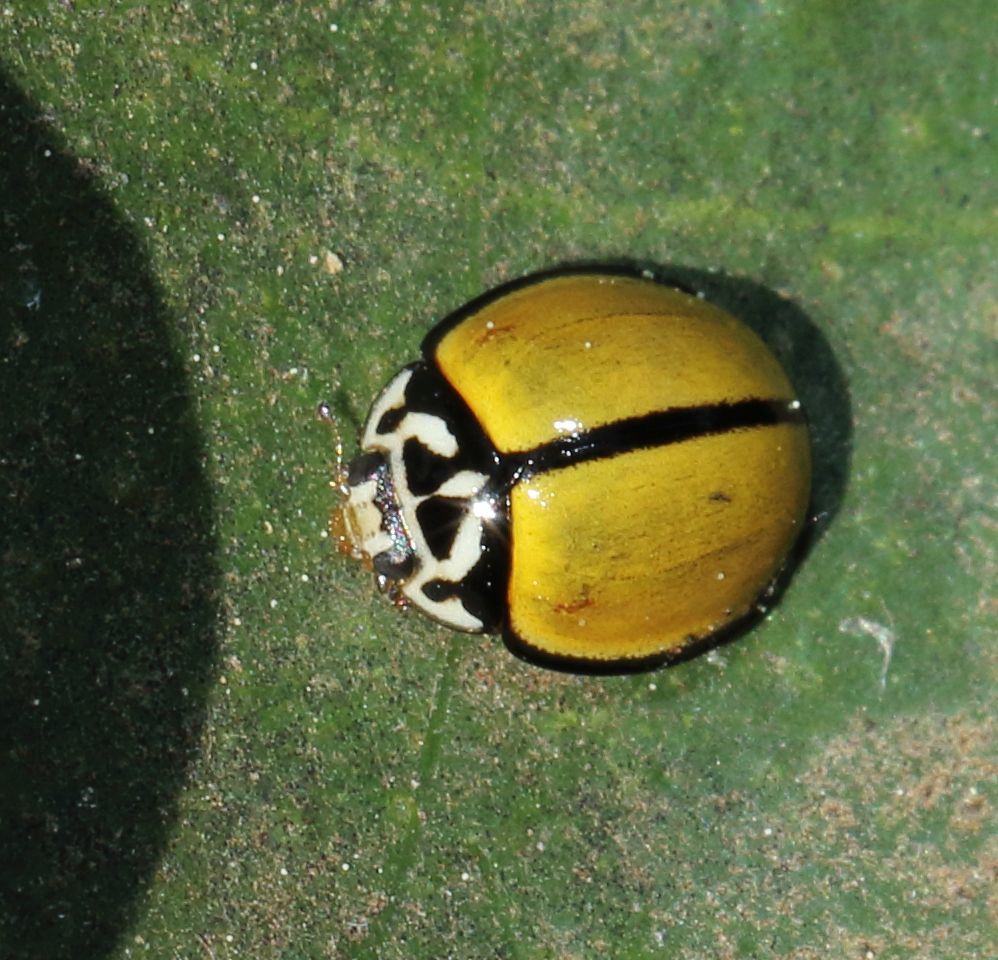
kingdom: Animalia
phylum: Arthropoda
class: Insecta
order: Coleoptera
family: Coccinellidae
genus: Oenopia
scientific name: Oenopia
